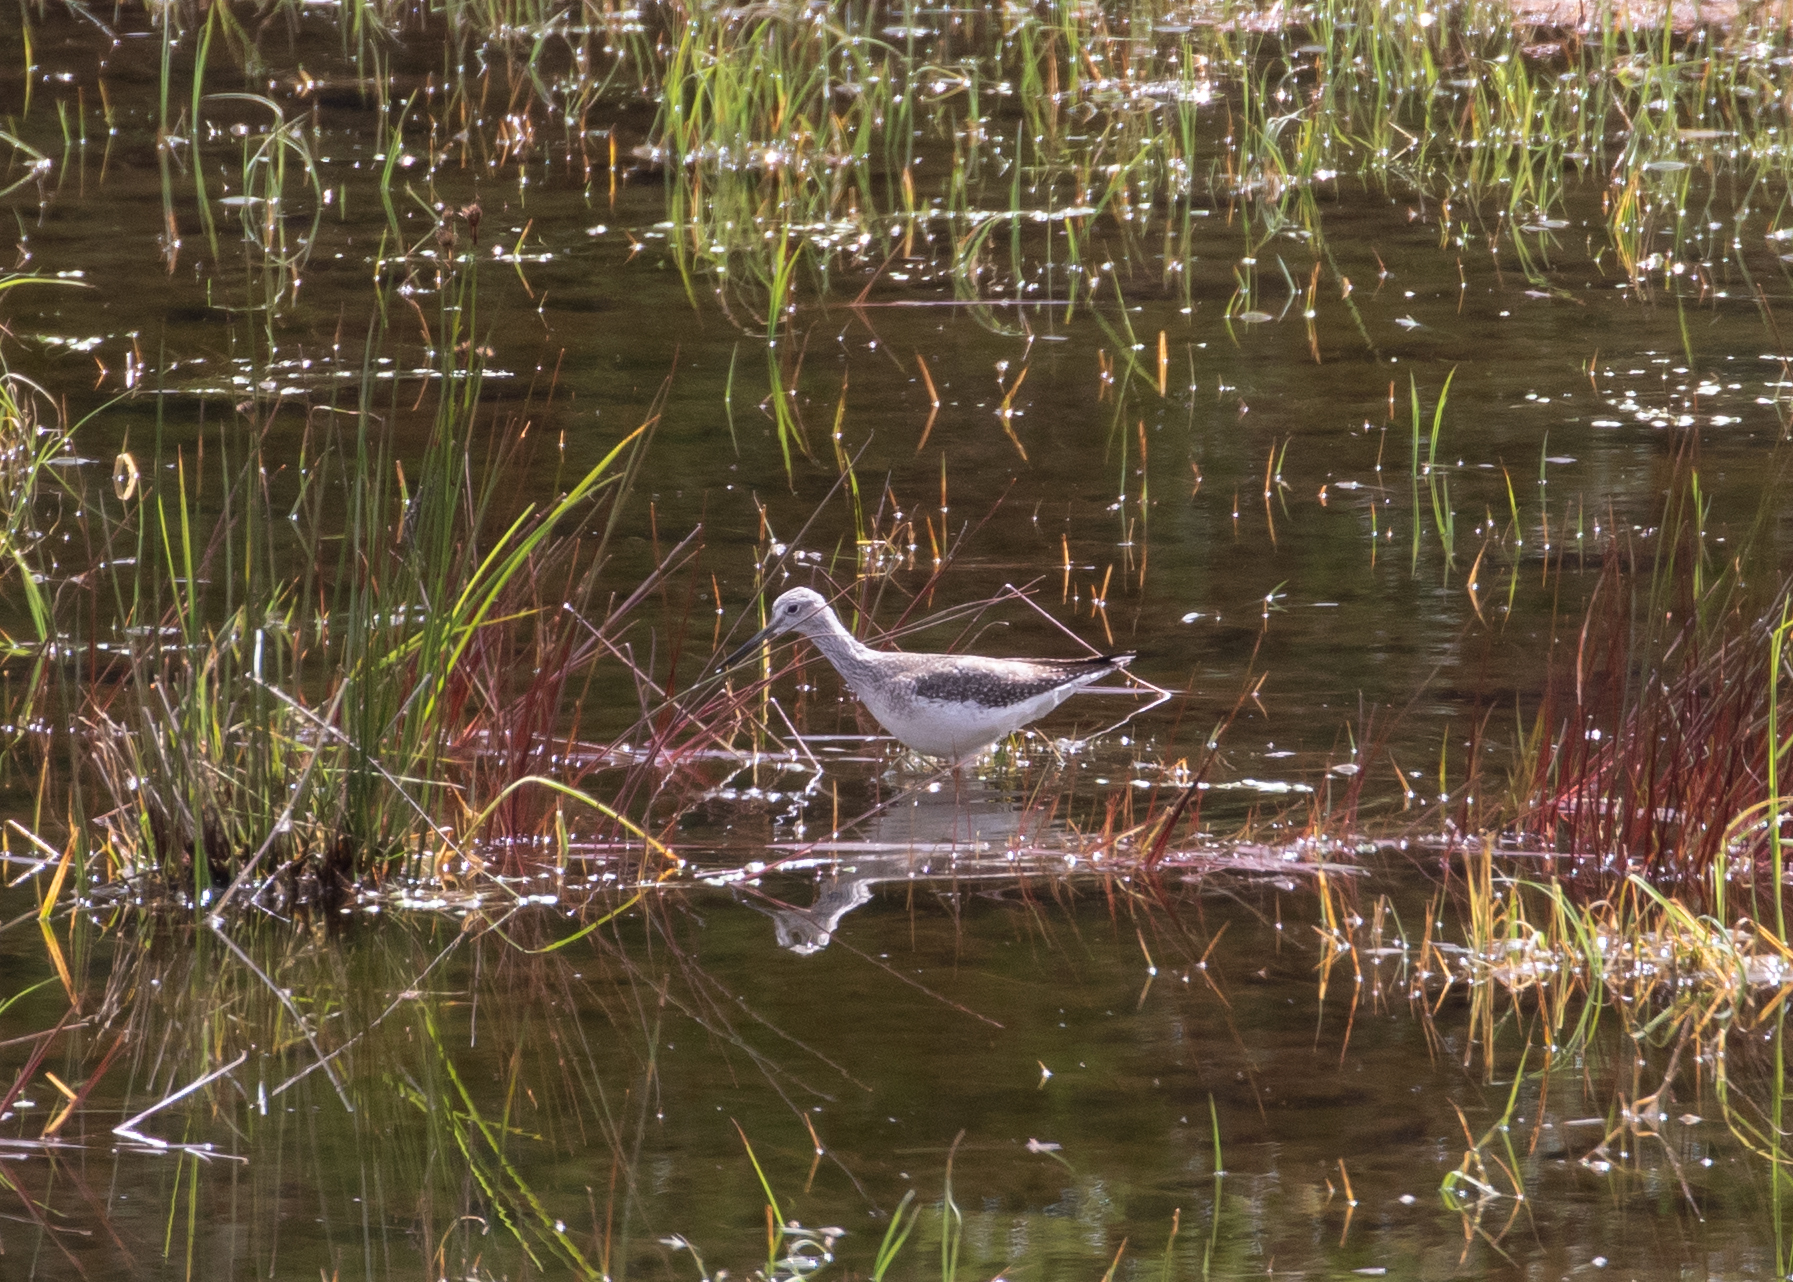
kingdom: Animalia
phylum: Chordata
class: Aves
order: Charadriiformes
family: Scolopacidae
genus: Tringa
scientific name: Tringa melanoleuca
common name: Greater yellowlegs
